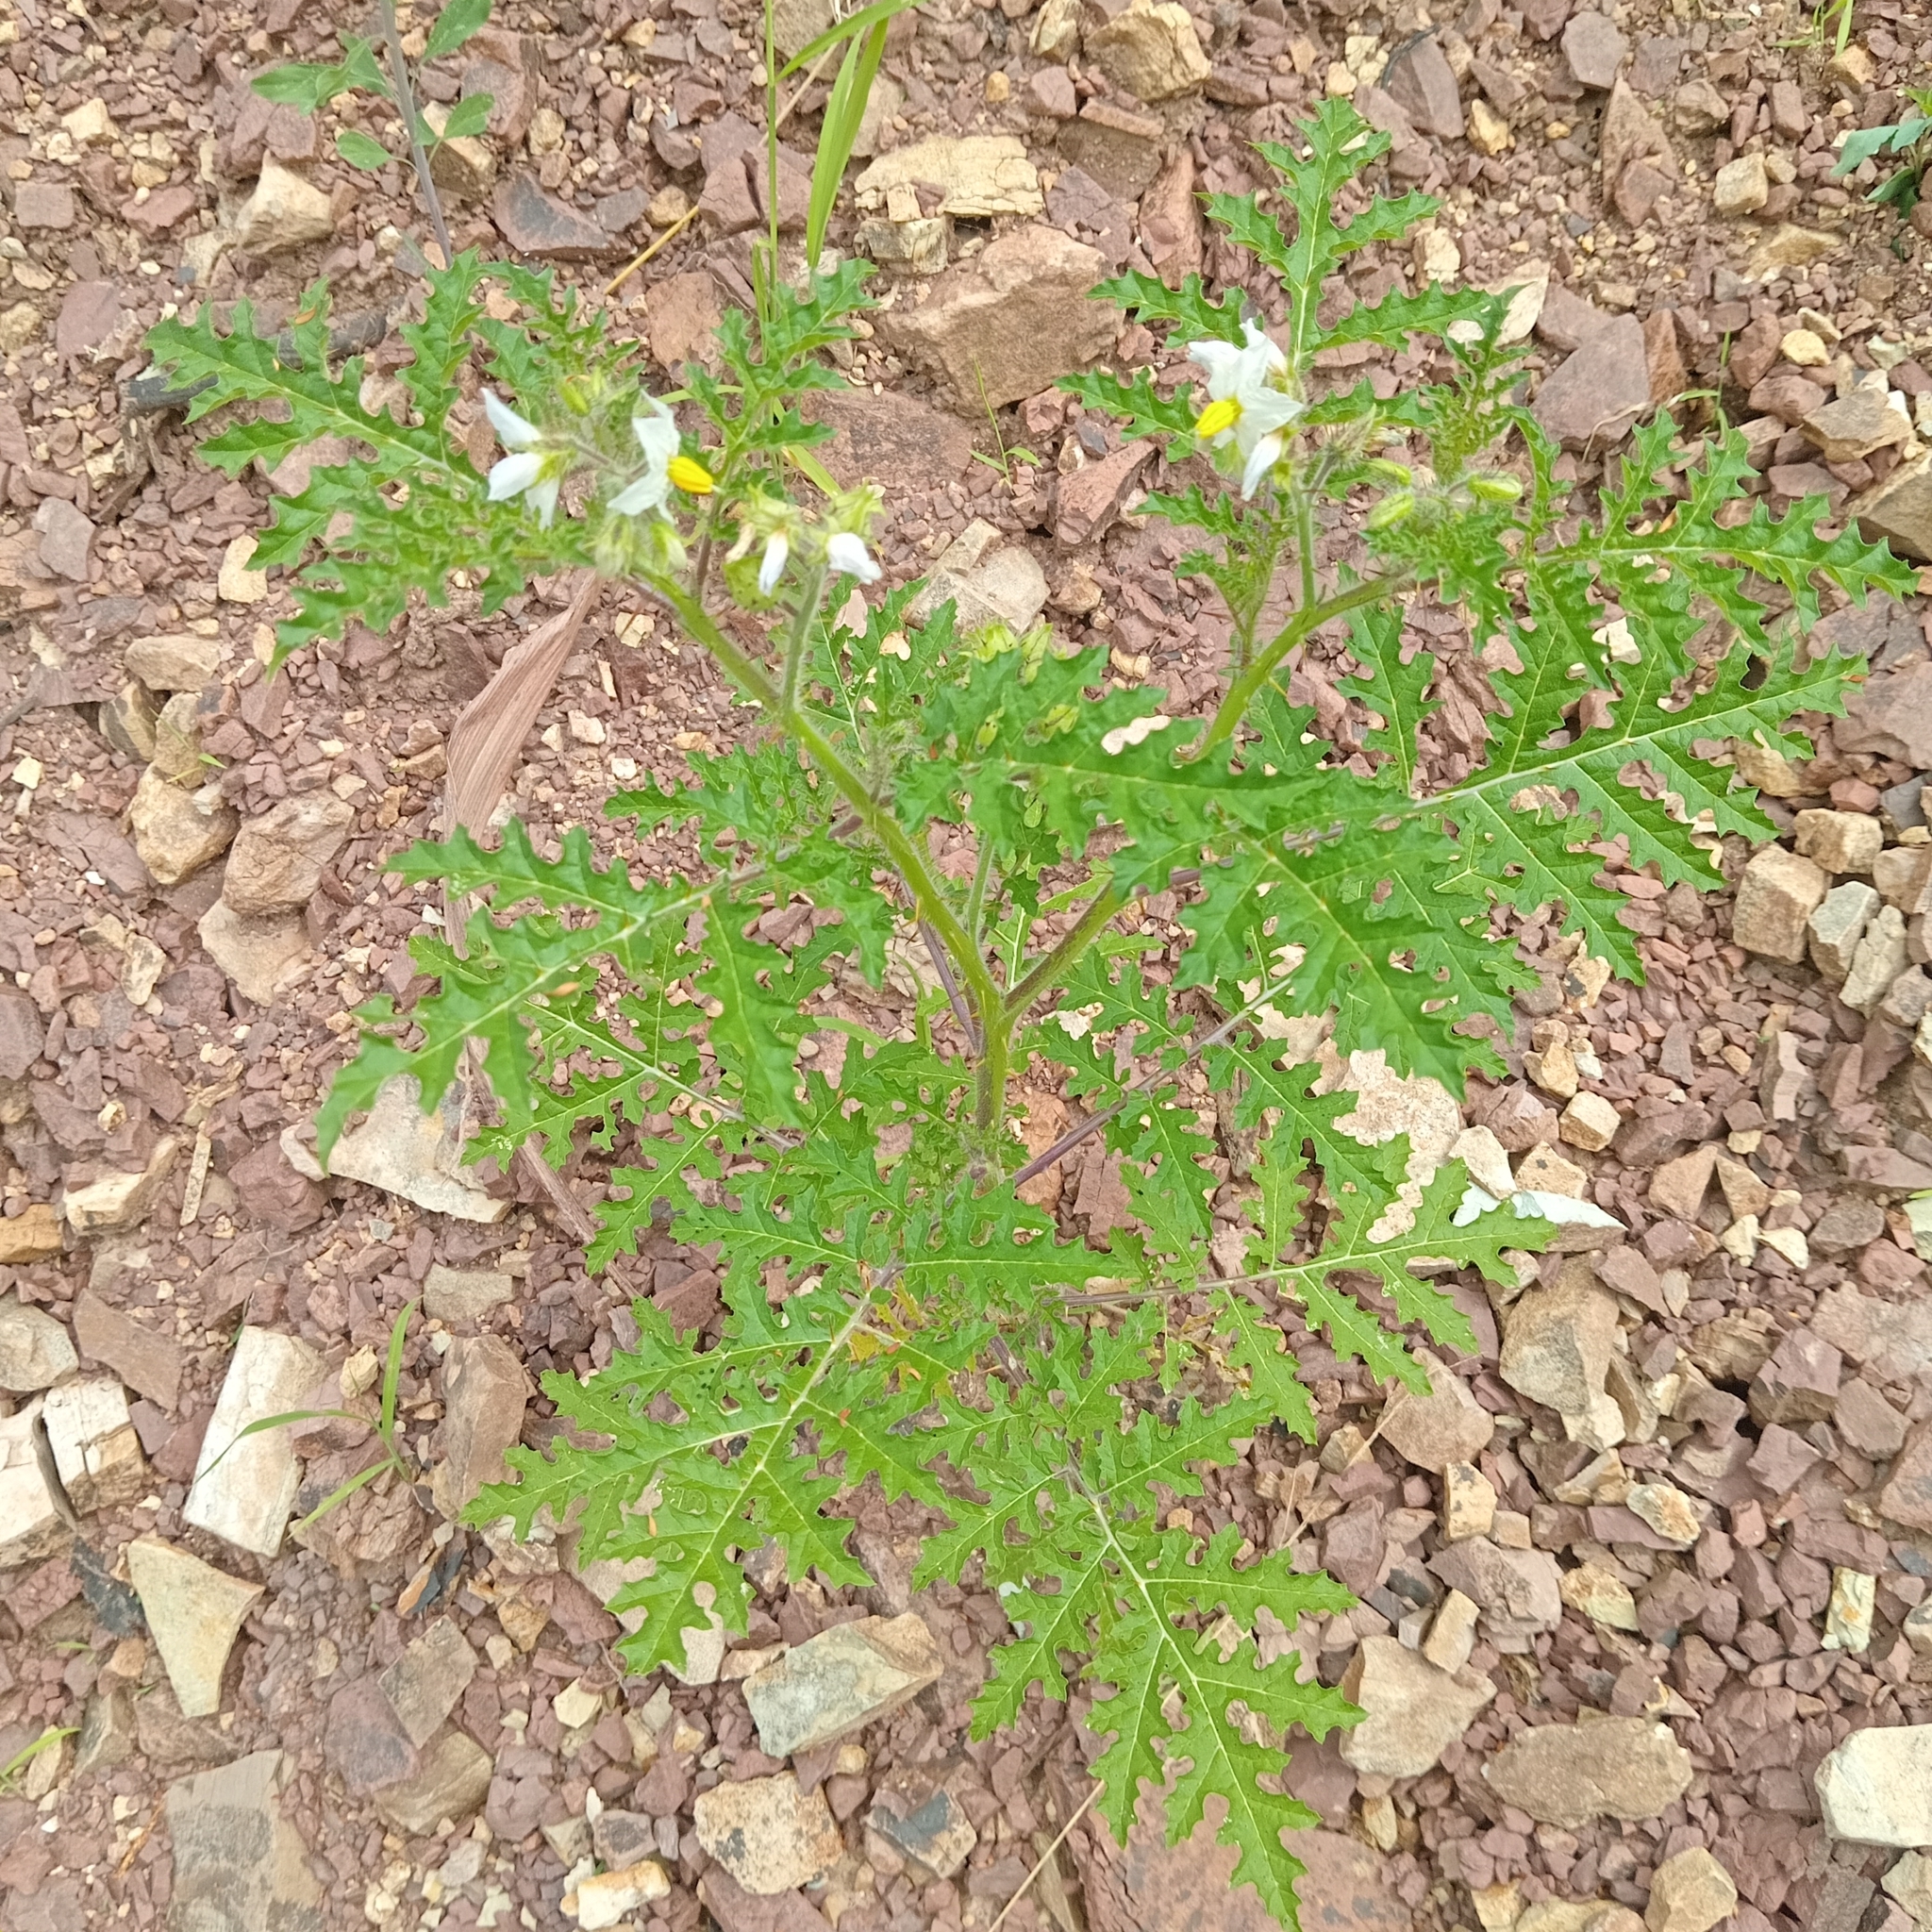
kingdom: Plantae
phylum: Tracheophyta
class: Magnoliopsida
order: Solanales
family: Solanaceae
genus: Solanum
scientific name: Solanum sisymbriifolium
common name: Red buffalo-bur
